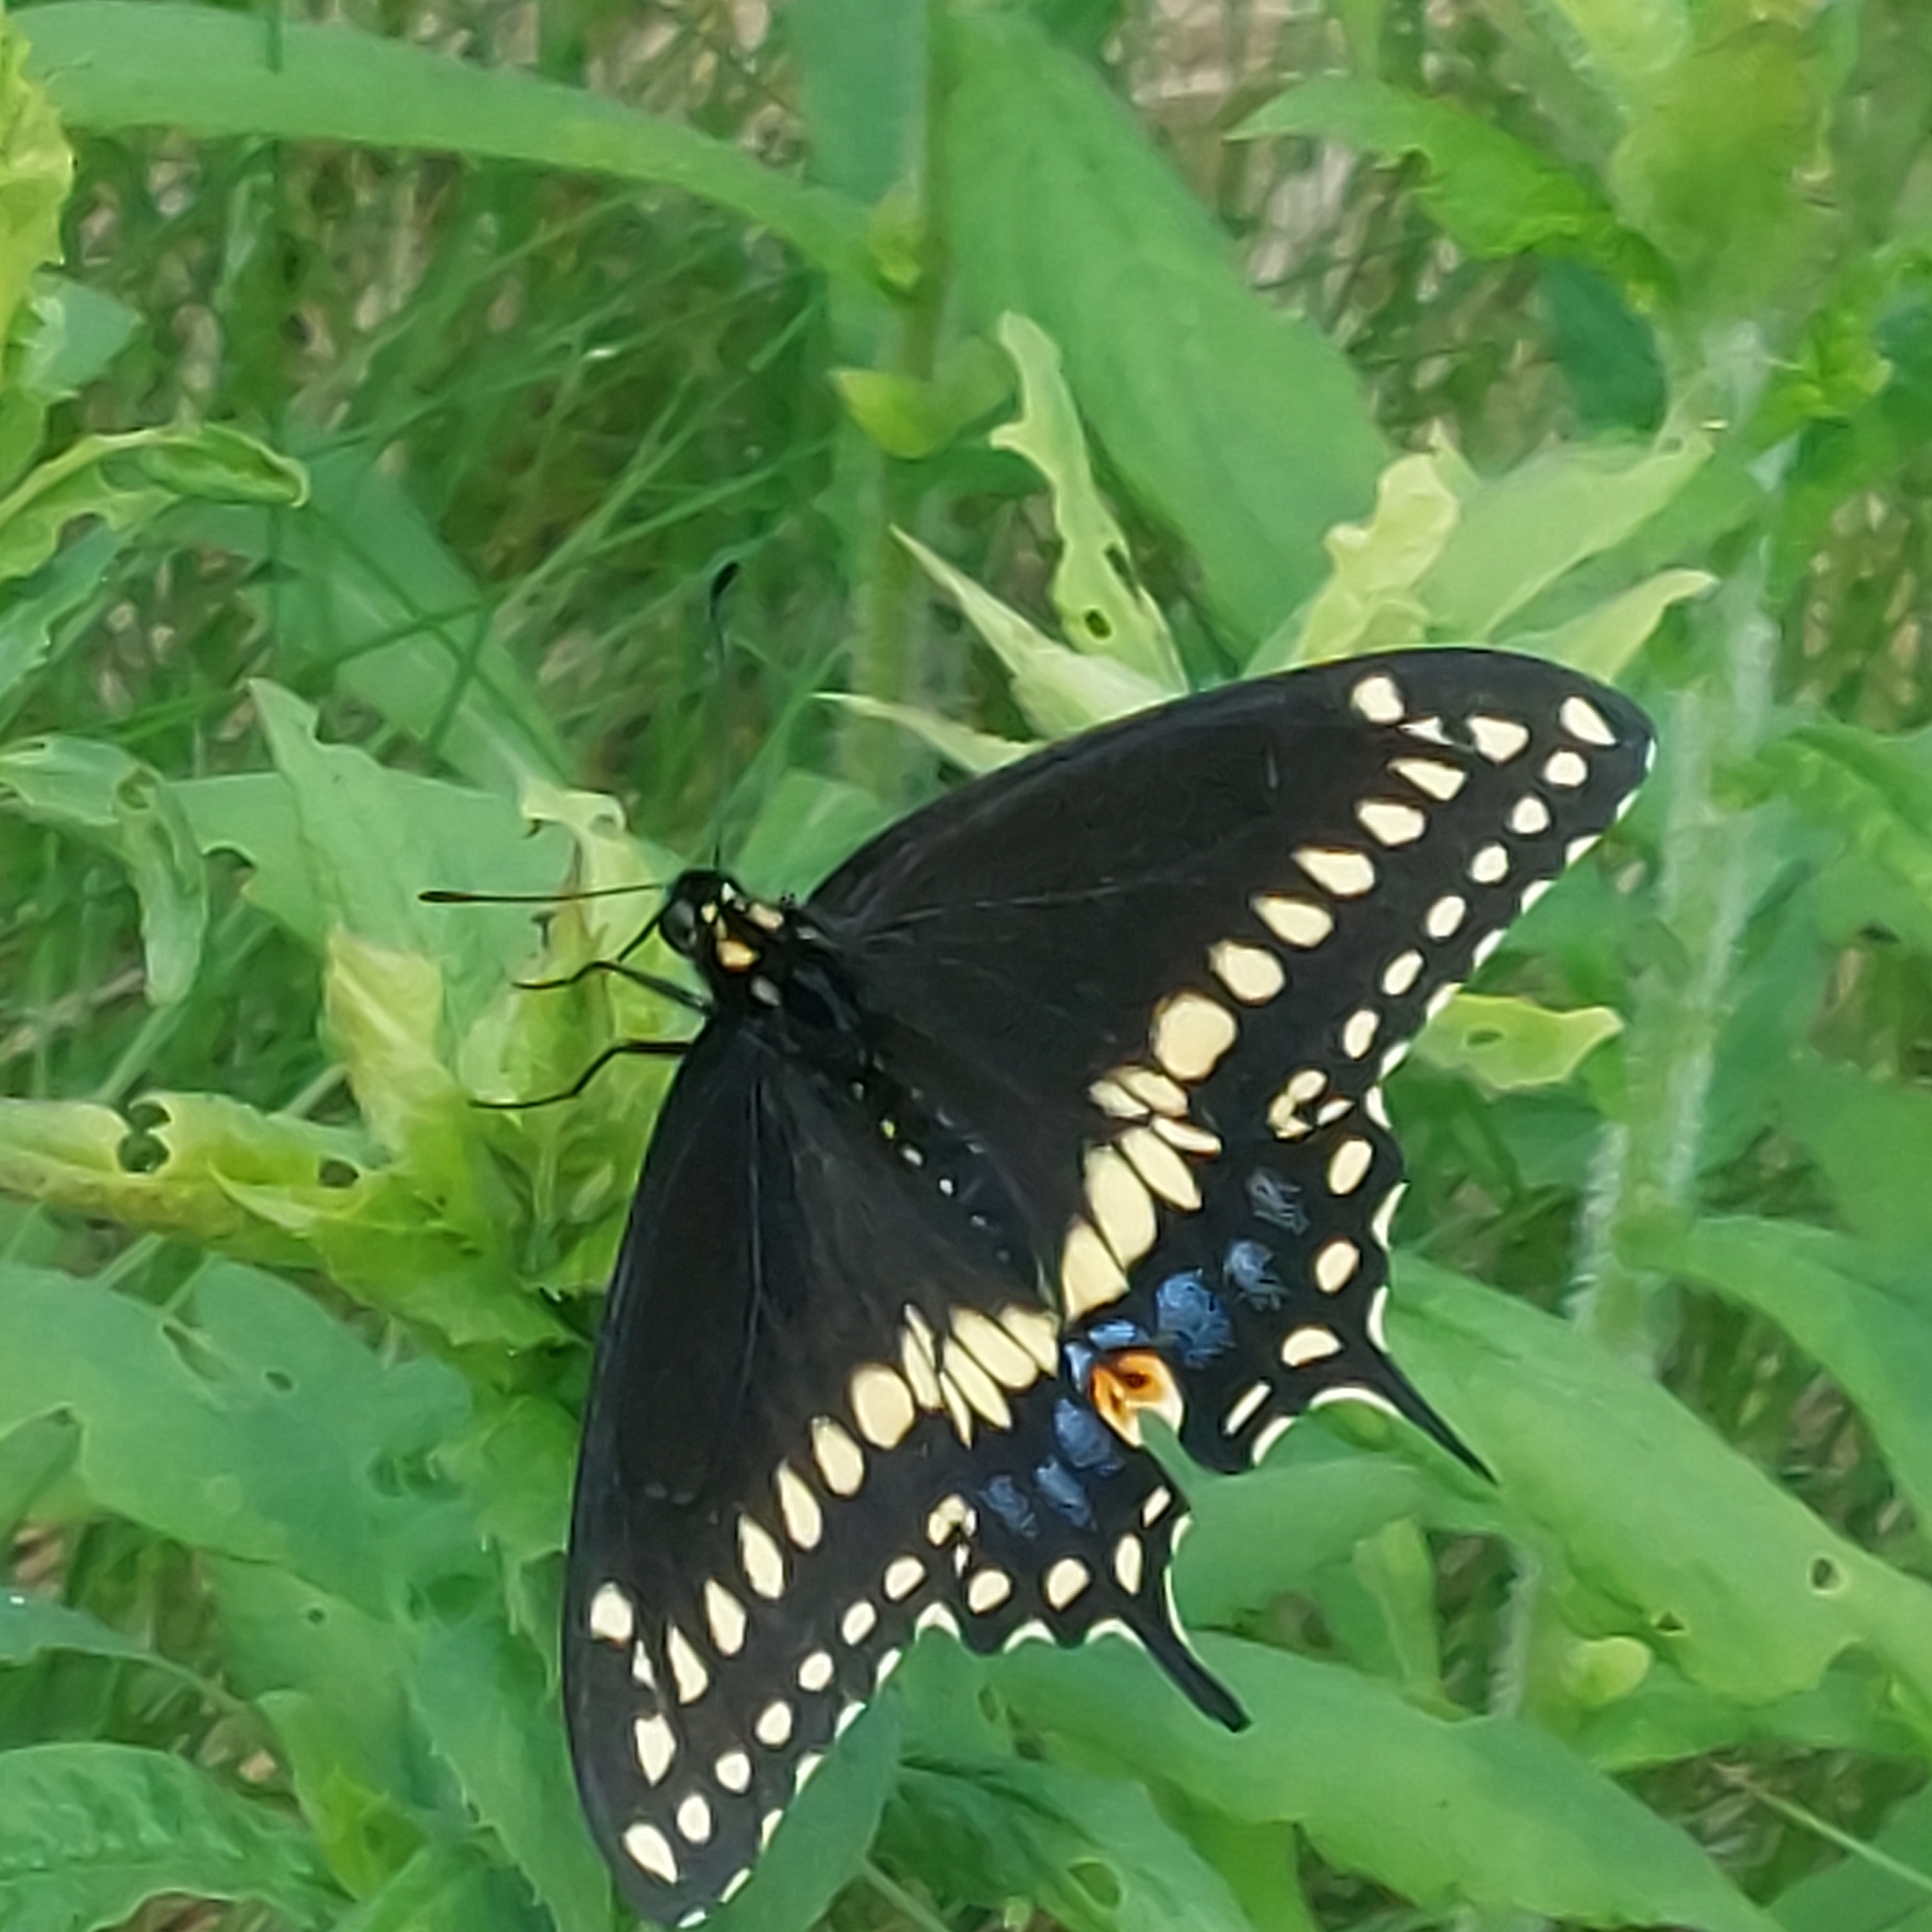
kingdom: Animalia
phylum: Arthropoda
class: Insecta
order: Lepidoptera
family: Papilionidae
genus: Papilio
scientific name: Papilio polyxenes
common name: Black swallowtail
